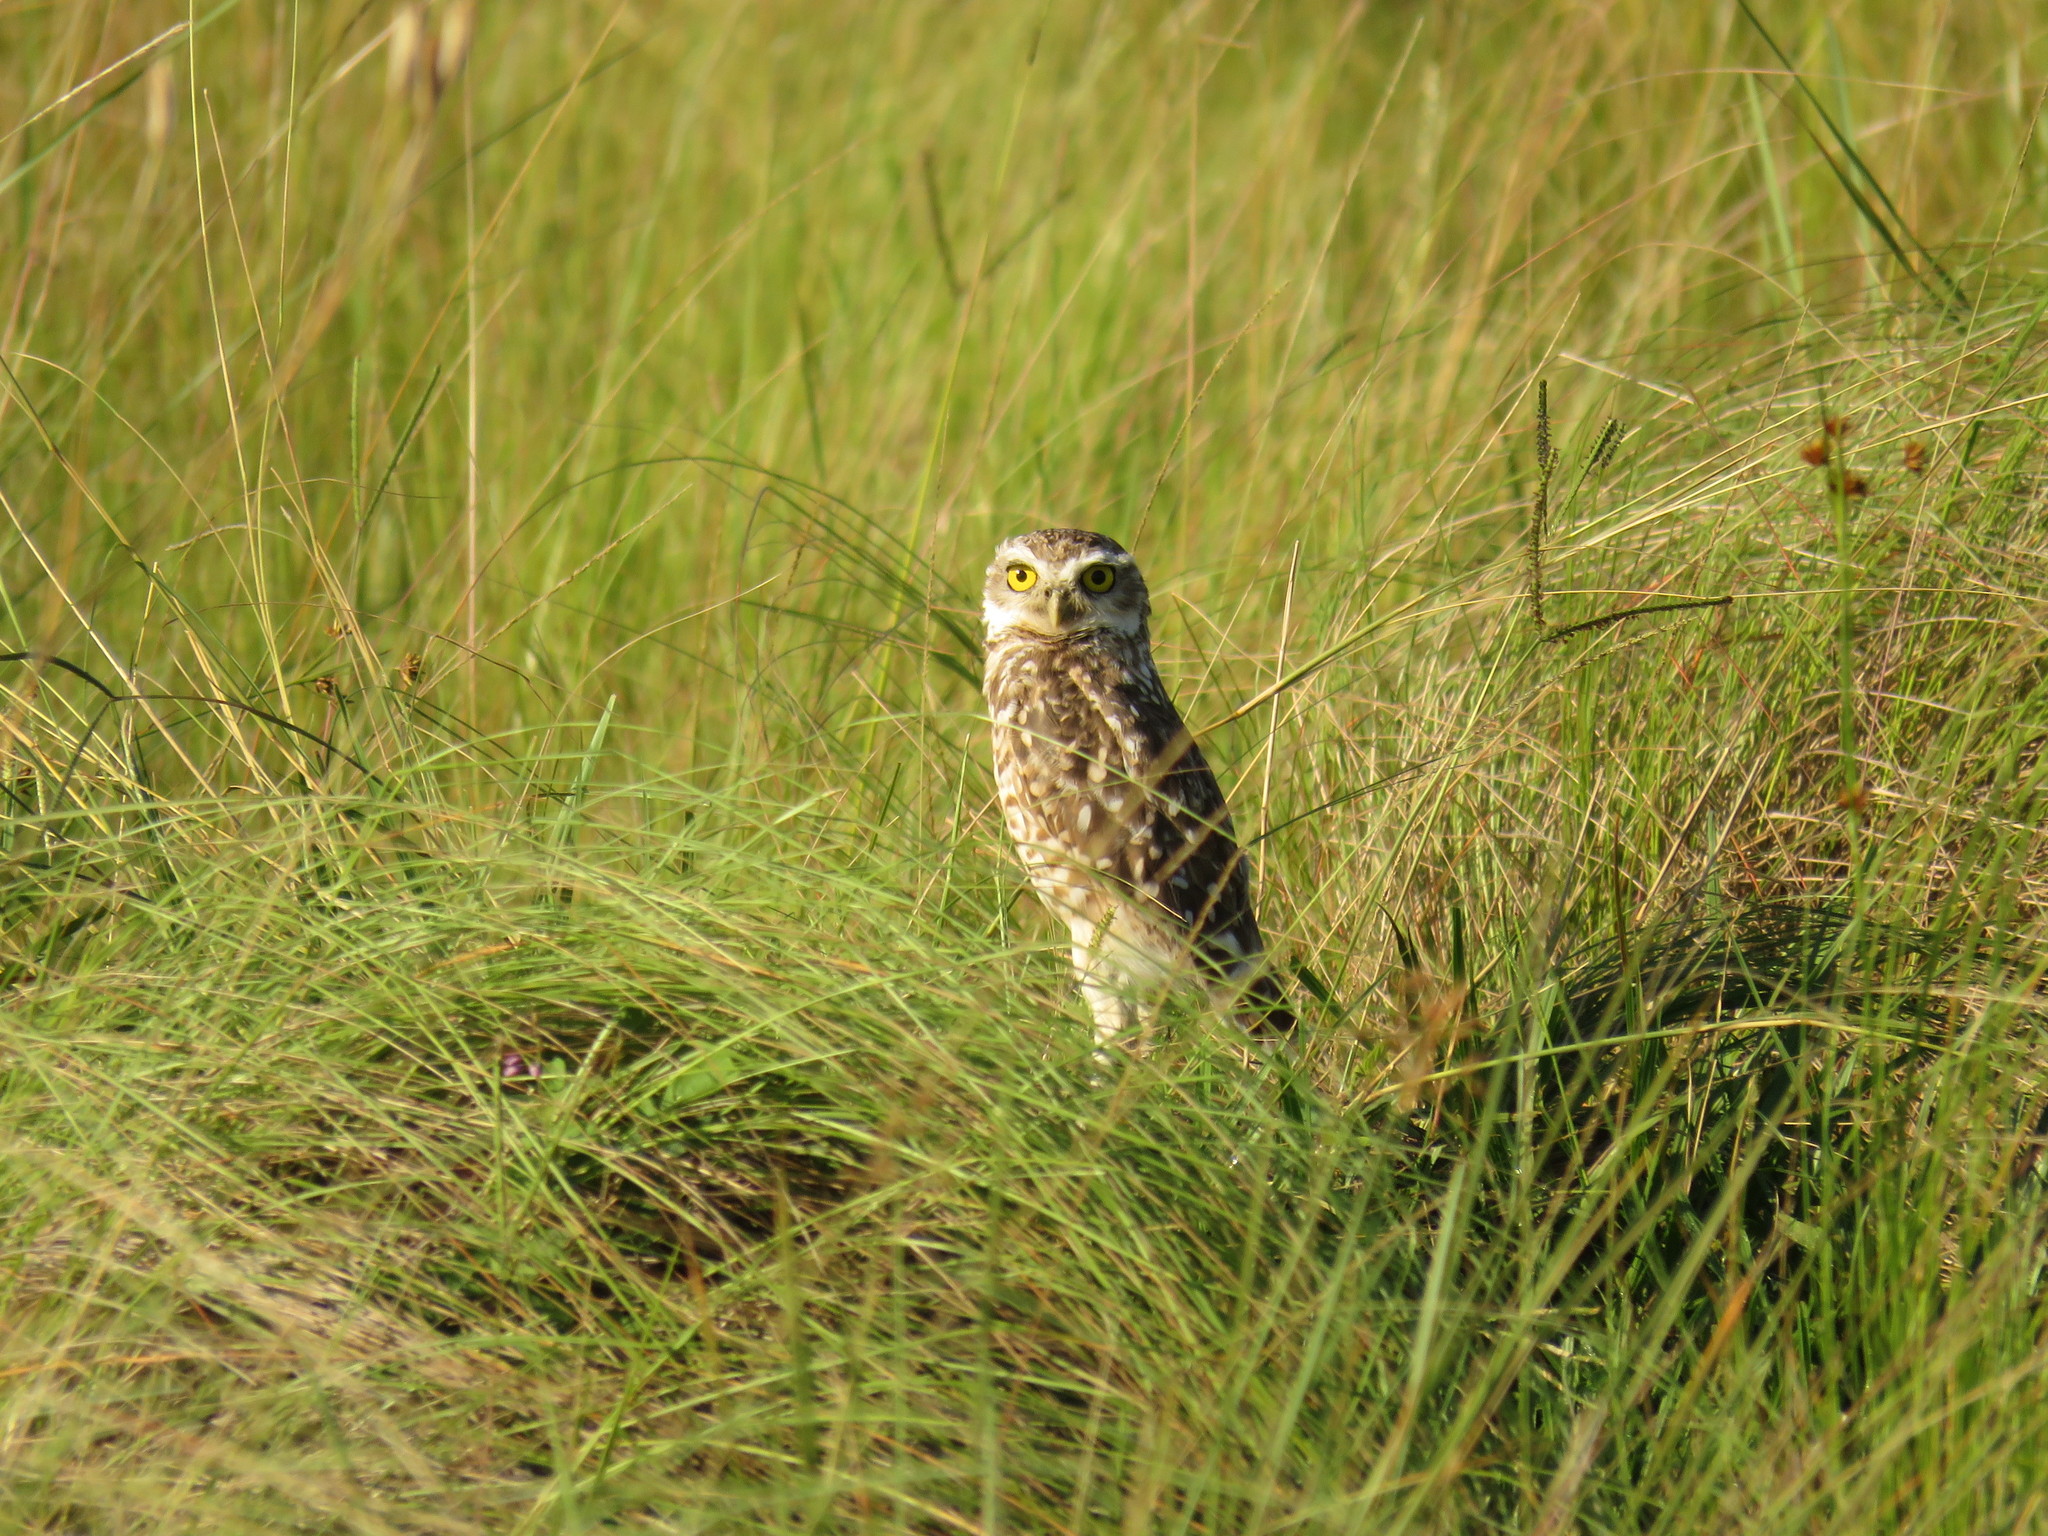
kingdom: Animalia
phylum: Chordata
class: Aves
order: Strigiformes
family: Strigidae
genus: Athene
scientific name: Athene cunicularia
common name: Burrowing owl
